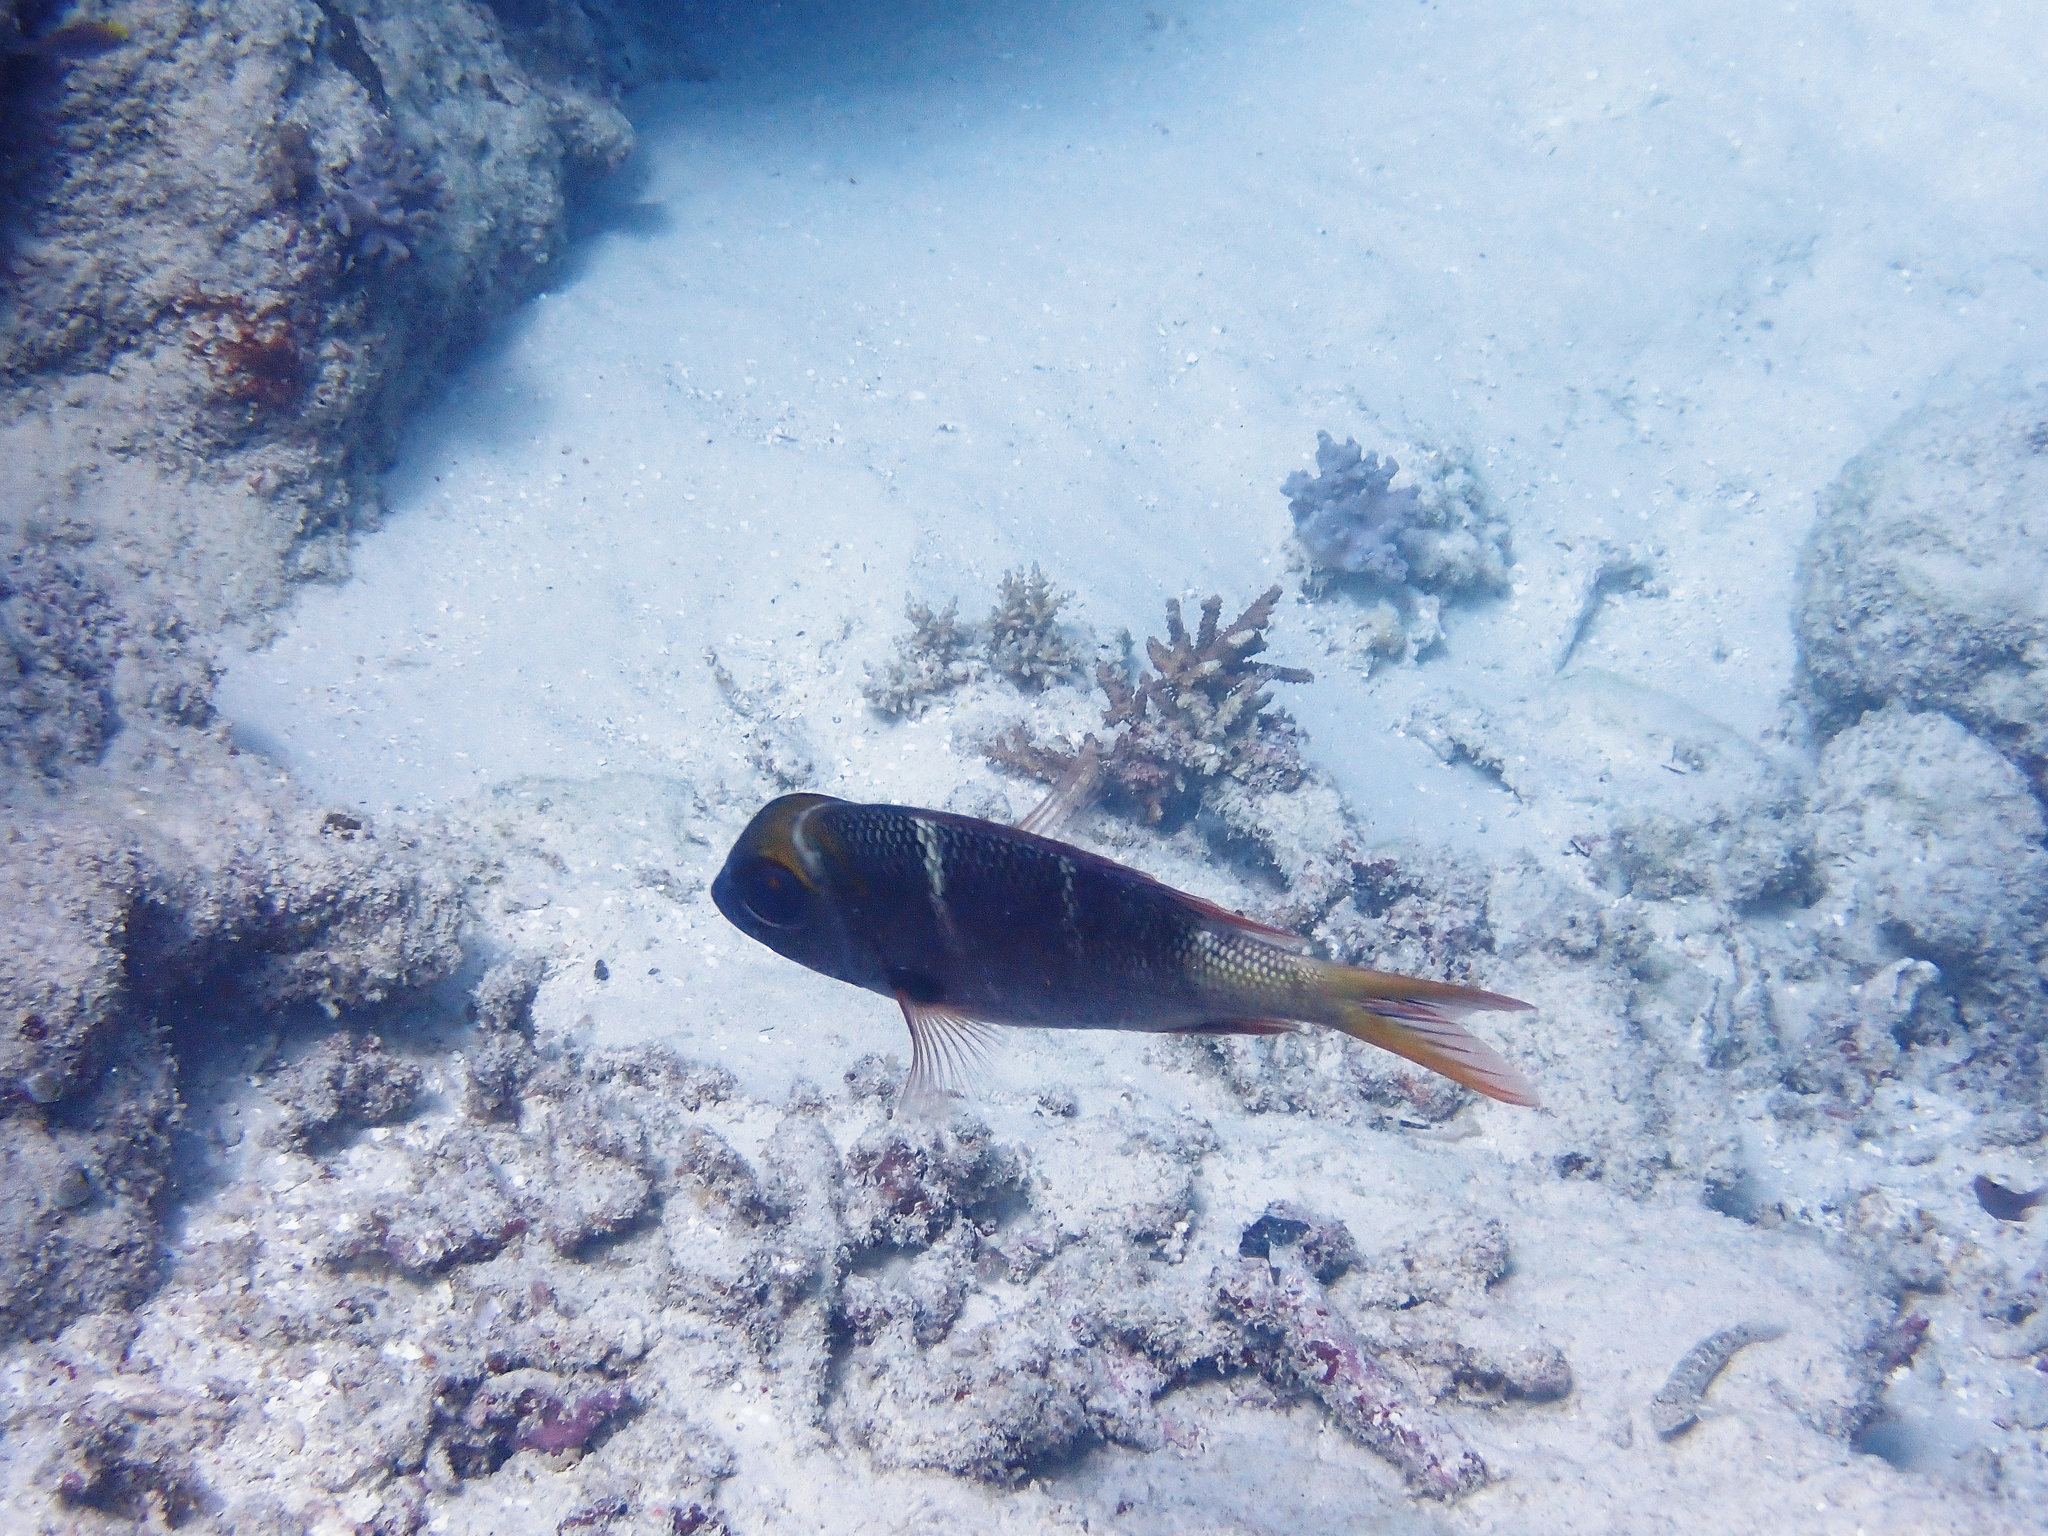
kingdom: Animalia
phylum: Chordata
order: Perciformes
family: Lethrinidae
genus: Monotaxis
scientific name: Monotaxis heterodon
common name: Redfin emperor
